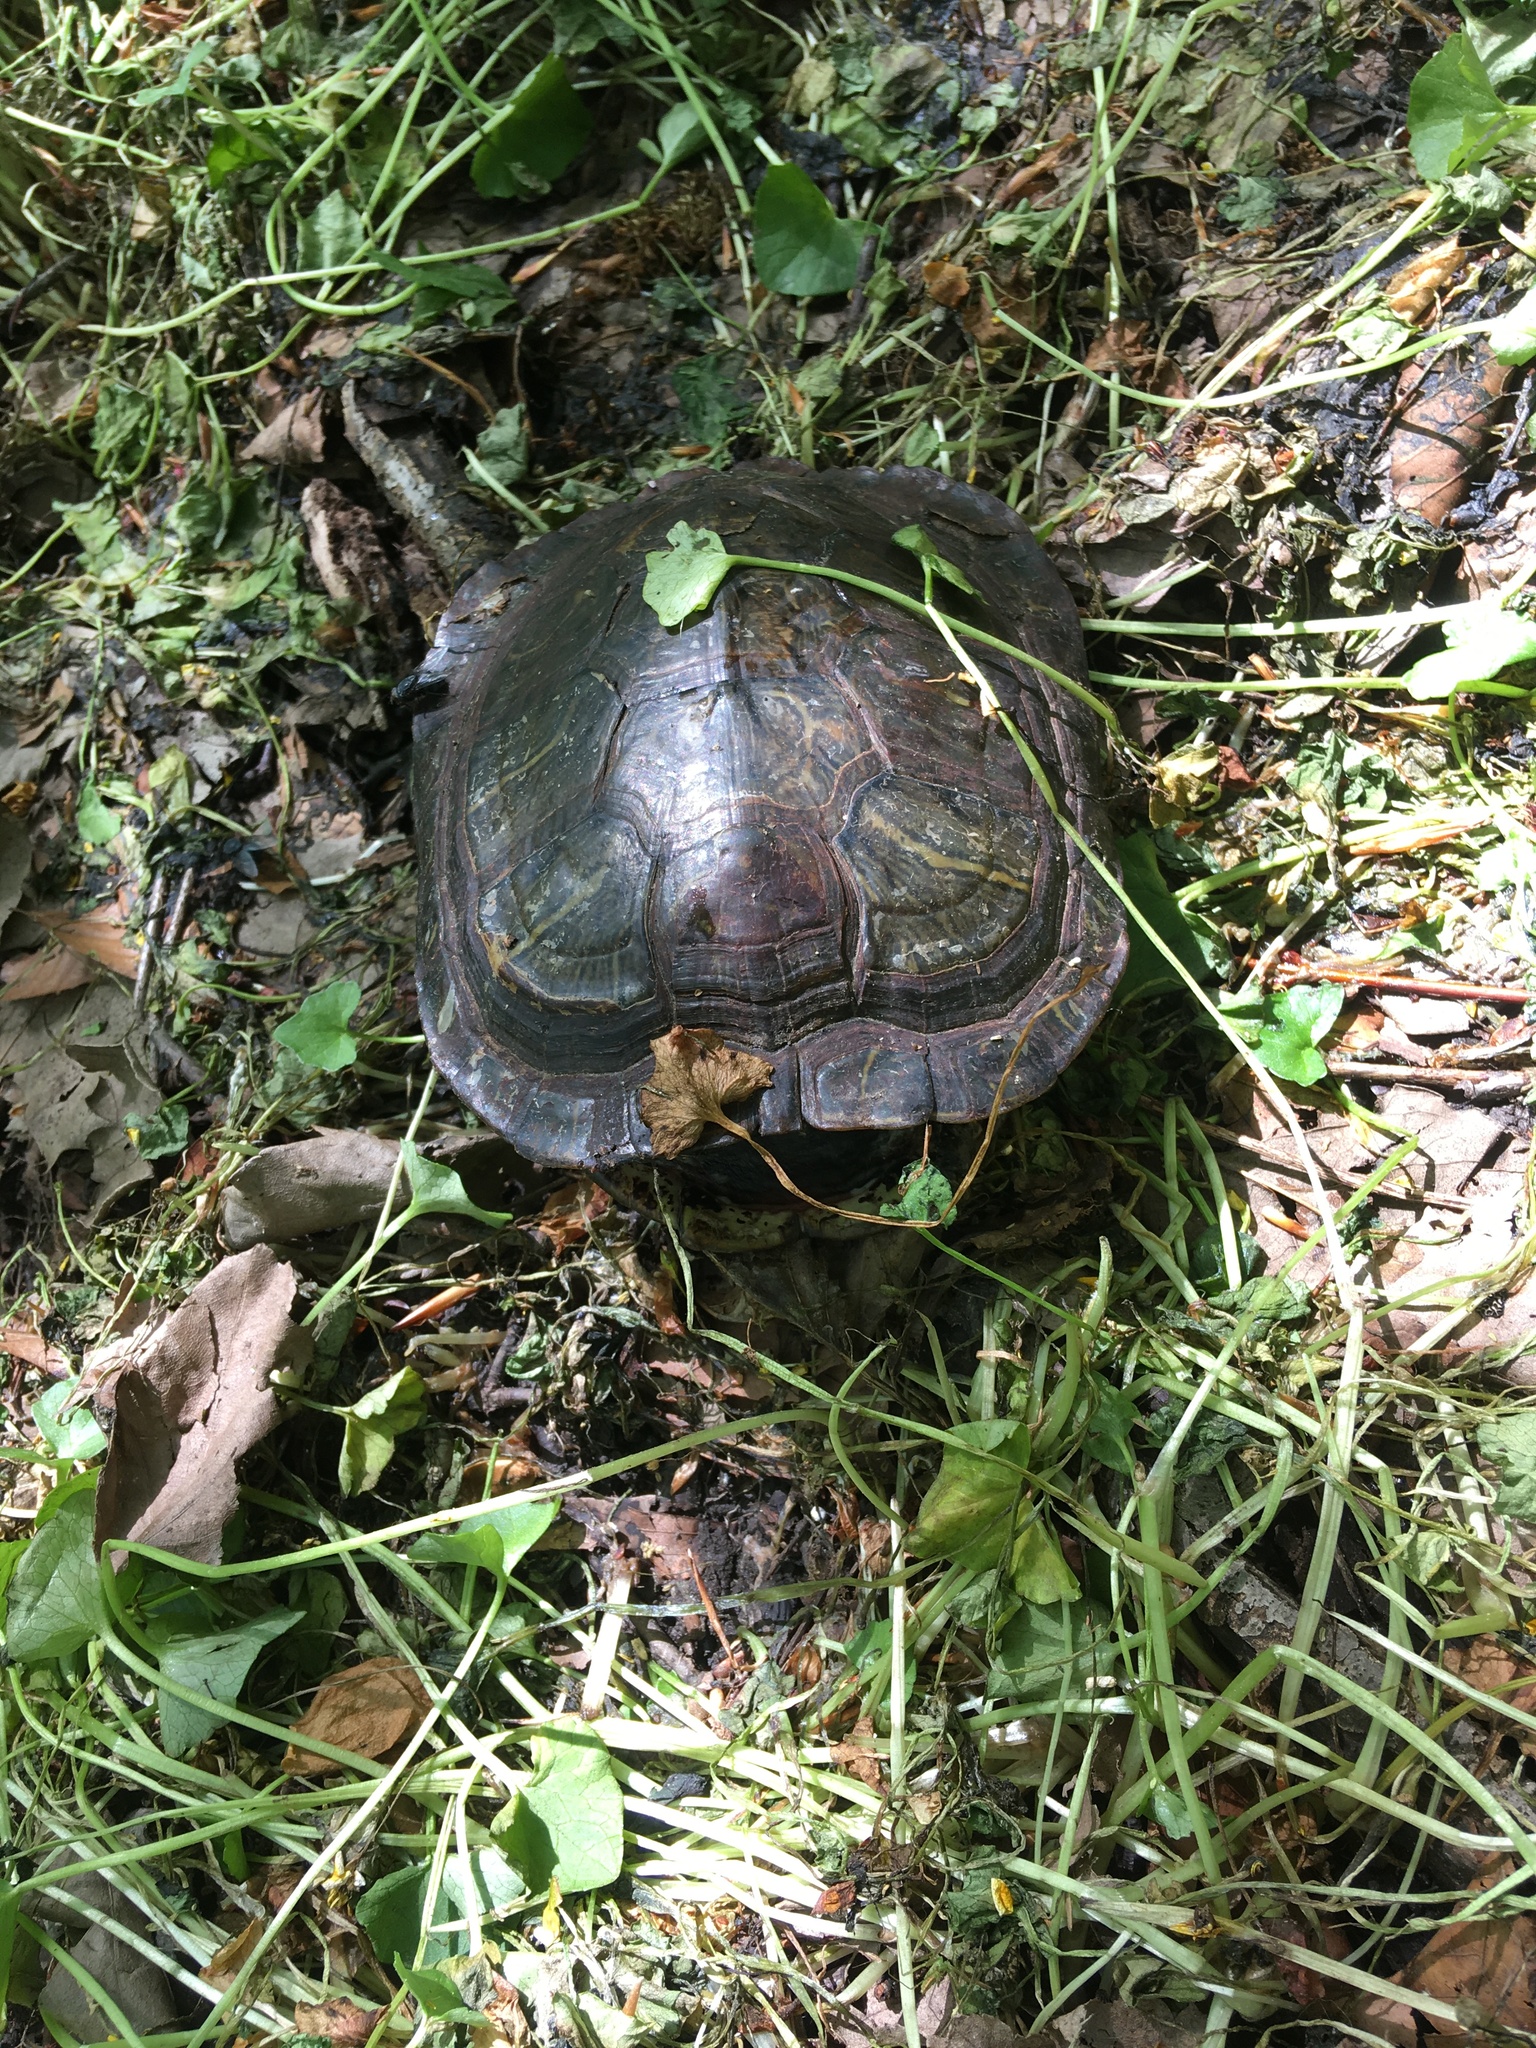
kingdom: Animalia
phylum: Chordata
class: Testudines
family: Emydidae
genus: Trachemys
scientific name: Trachemys scripta
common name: Slider
